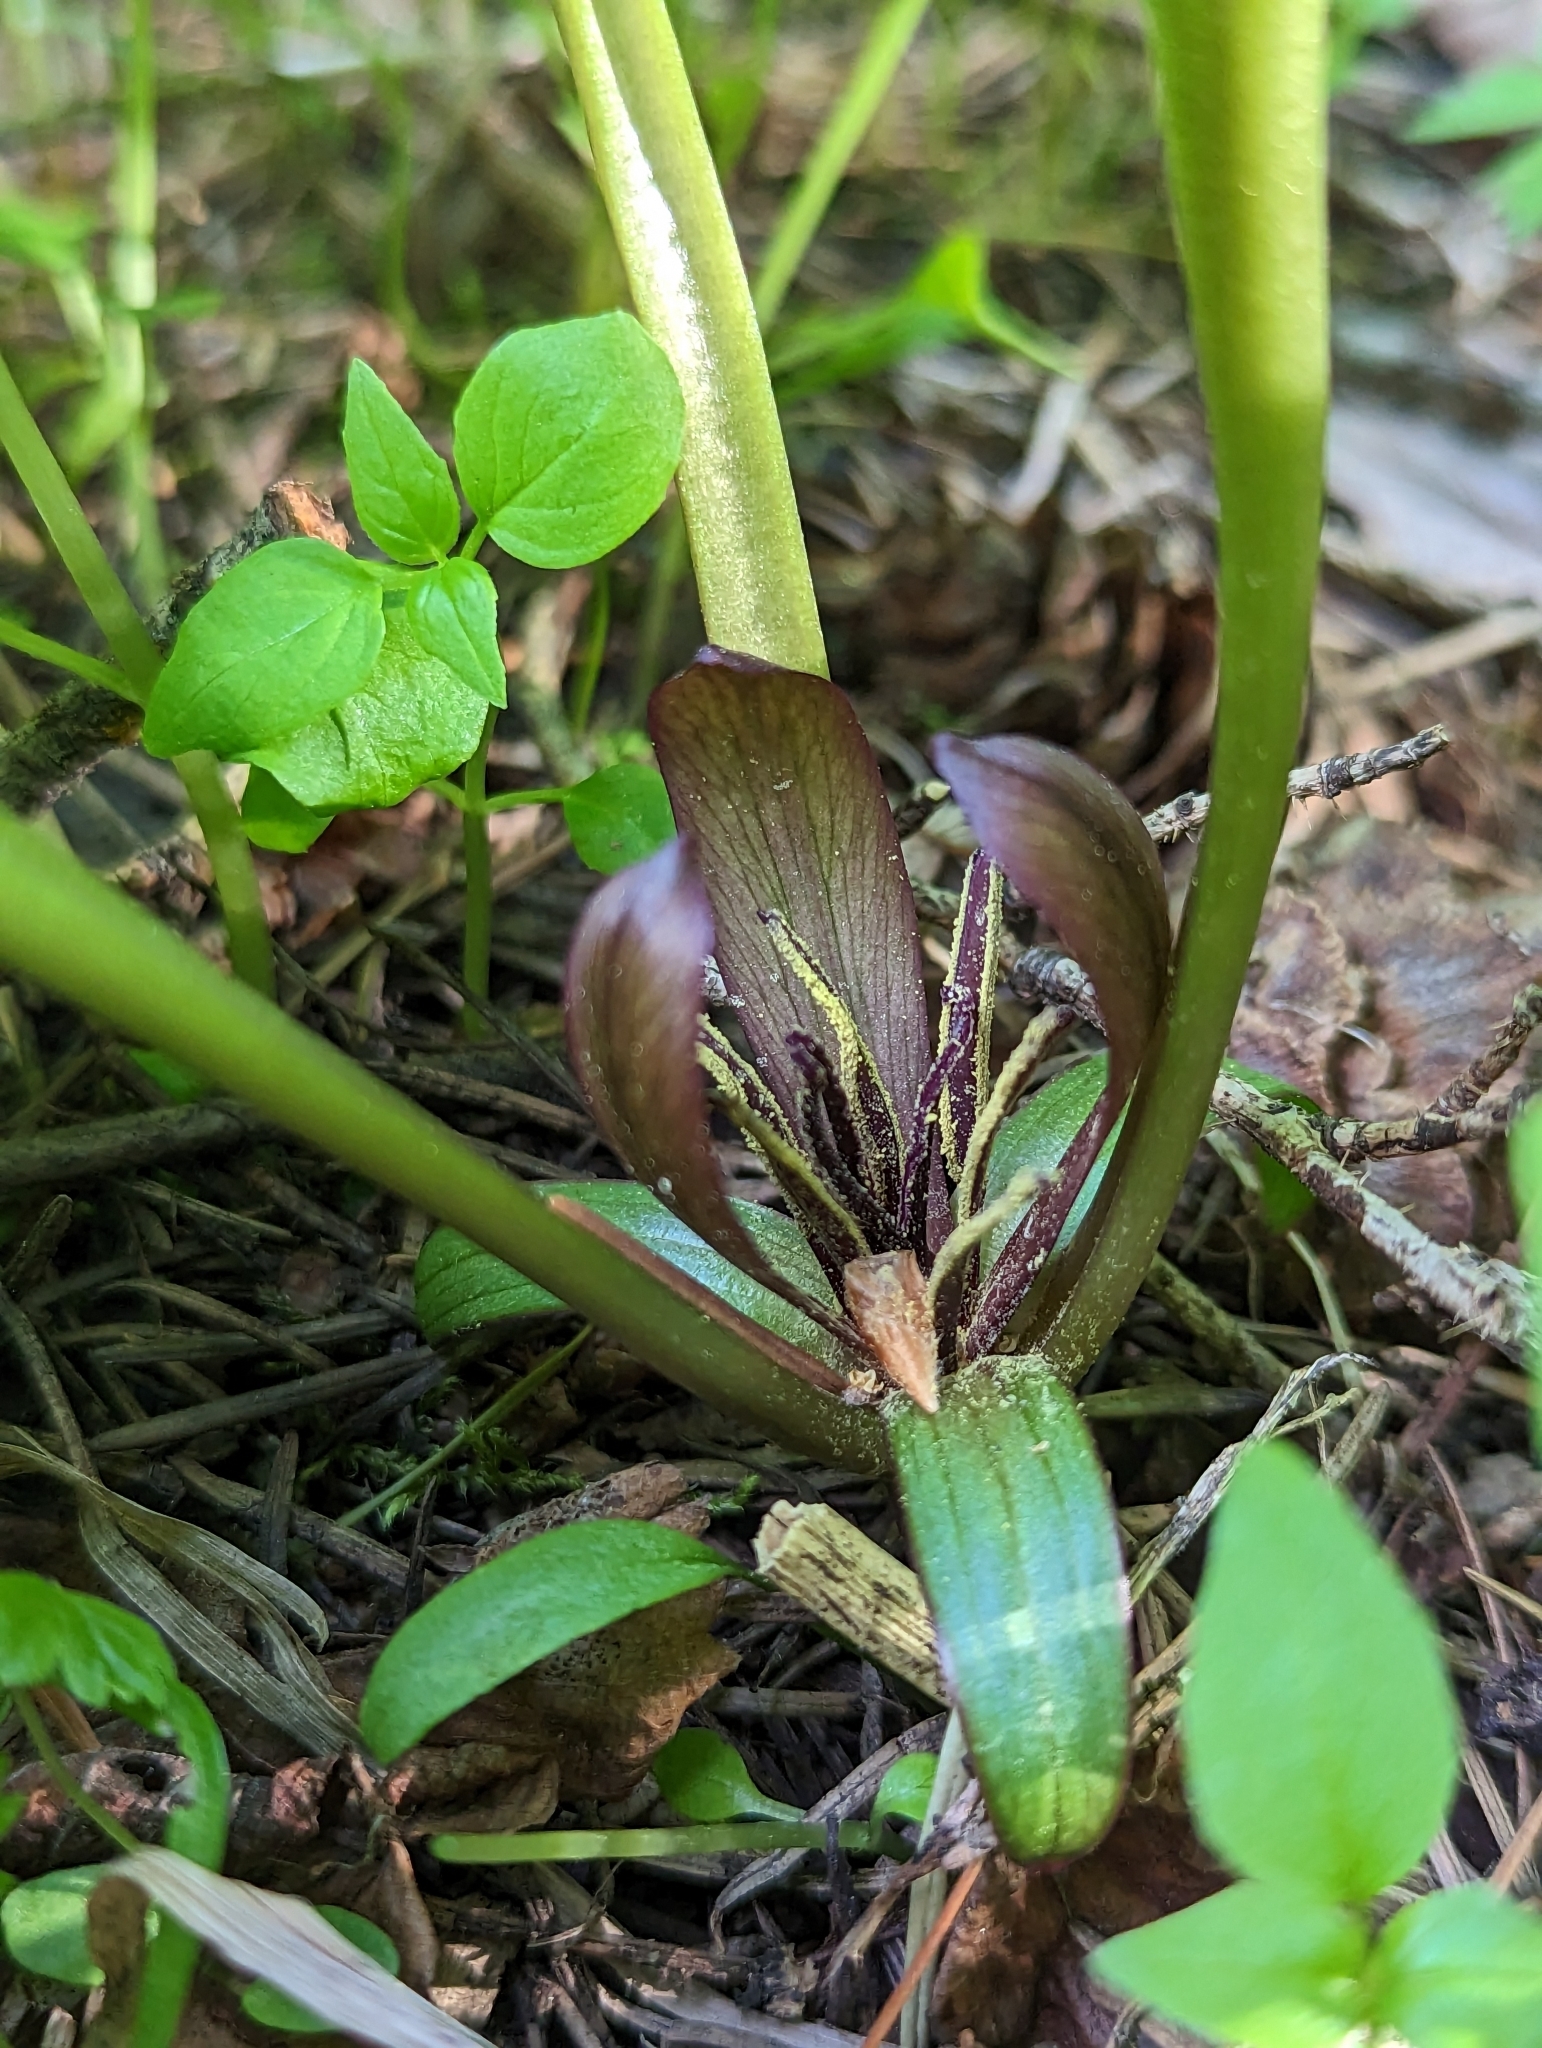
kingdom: Plantae
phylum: Tracheophyta
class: Liliopsida
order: Liliales
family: Melanthiaceae
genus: Trillium
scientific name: Trillium petiolatum
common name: Idaho trillium
